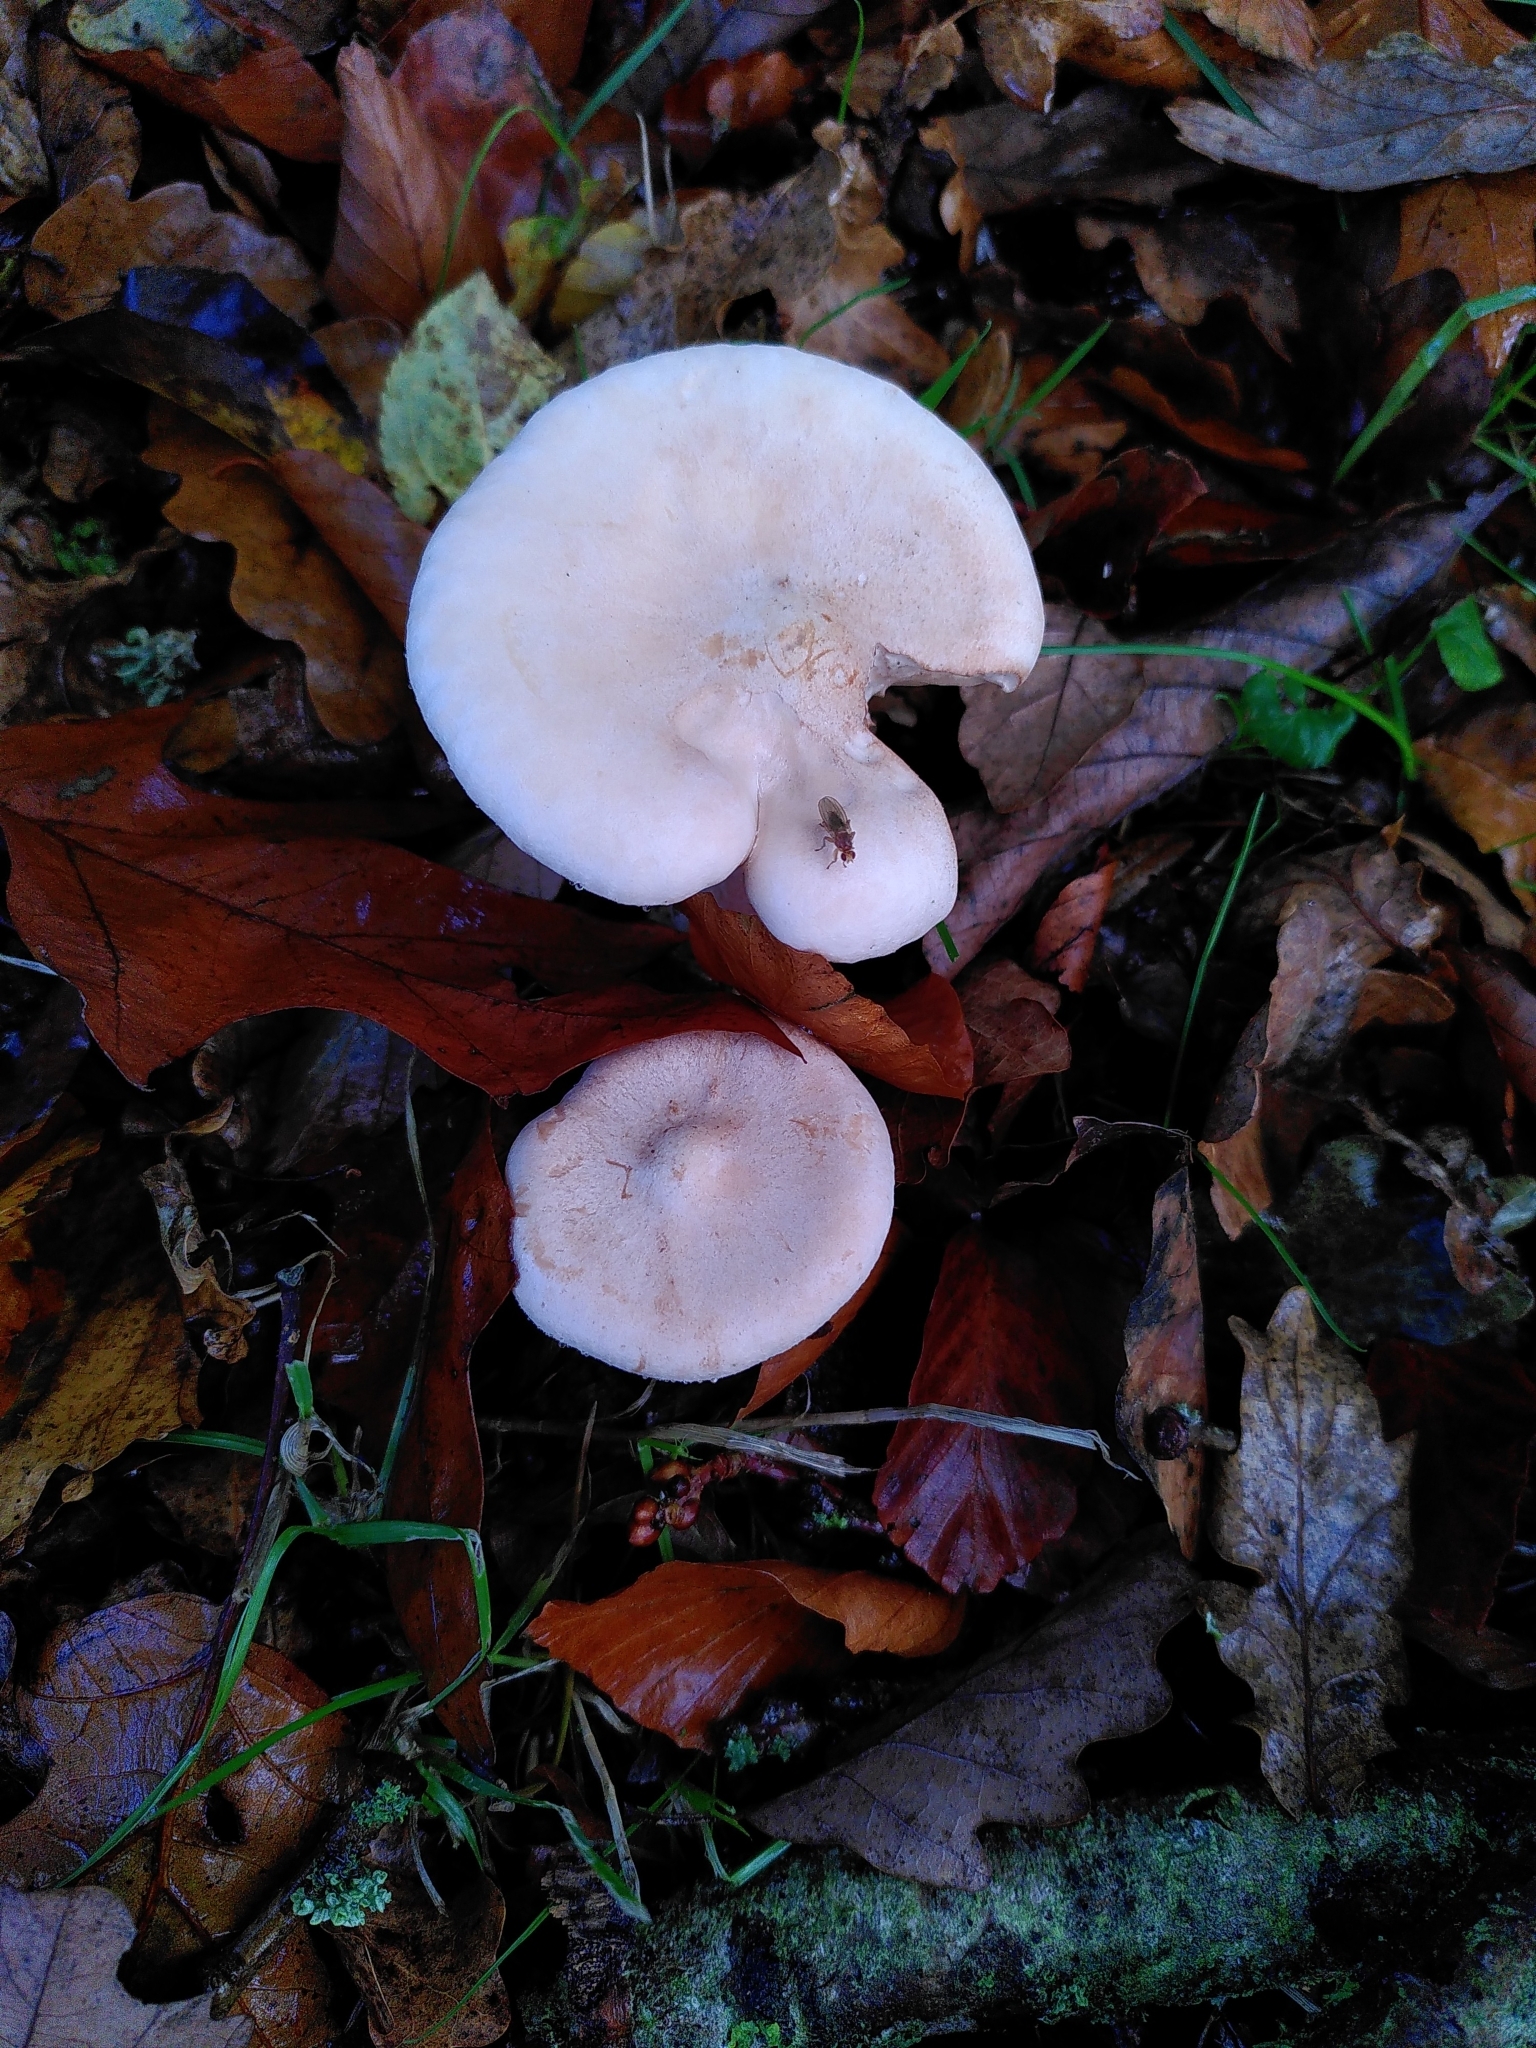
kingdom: Fungi
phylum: Basidiomycota
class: Agaricomycetes
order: Agaricales
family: Tricholomataceae
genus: Infundibulicybe
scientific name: Infundibulicybe geotropa
